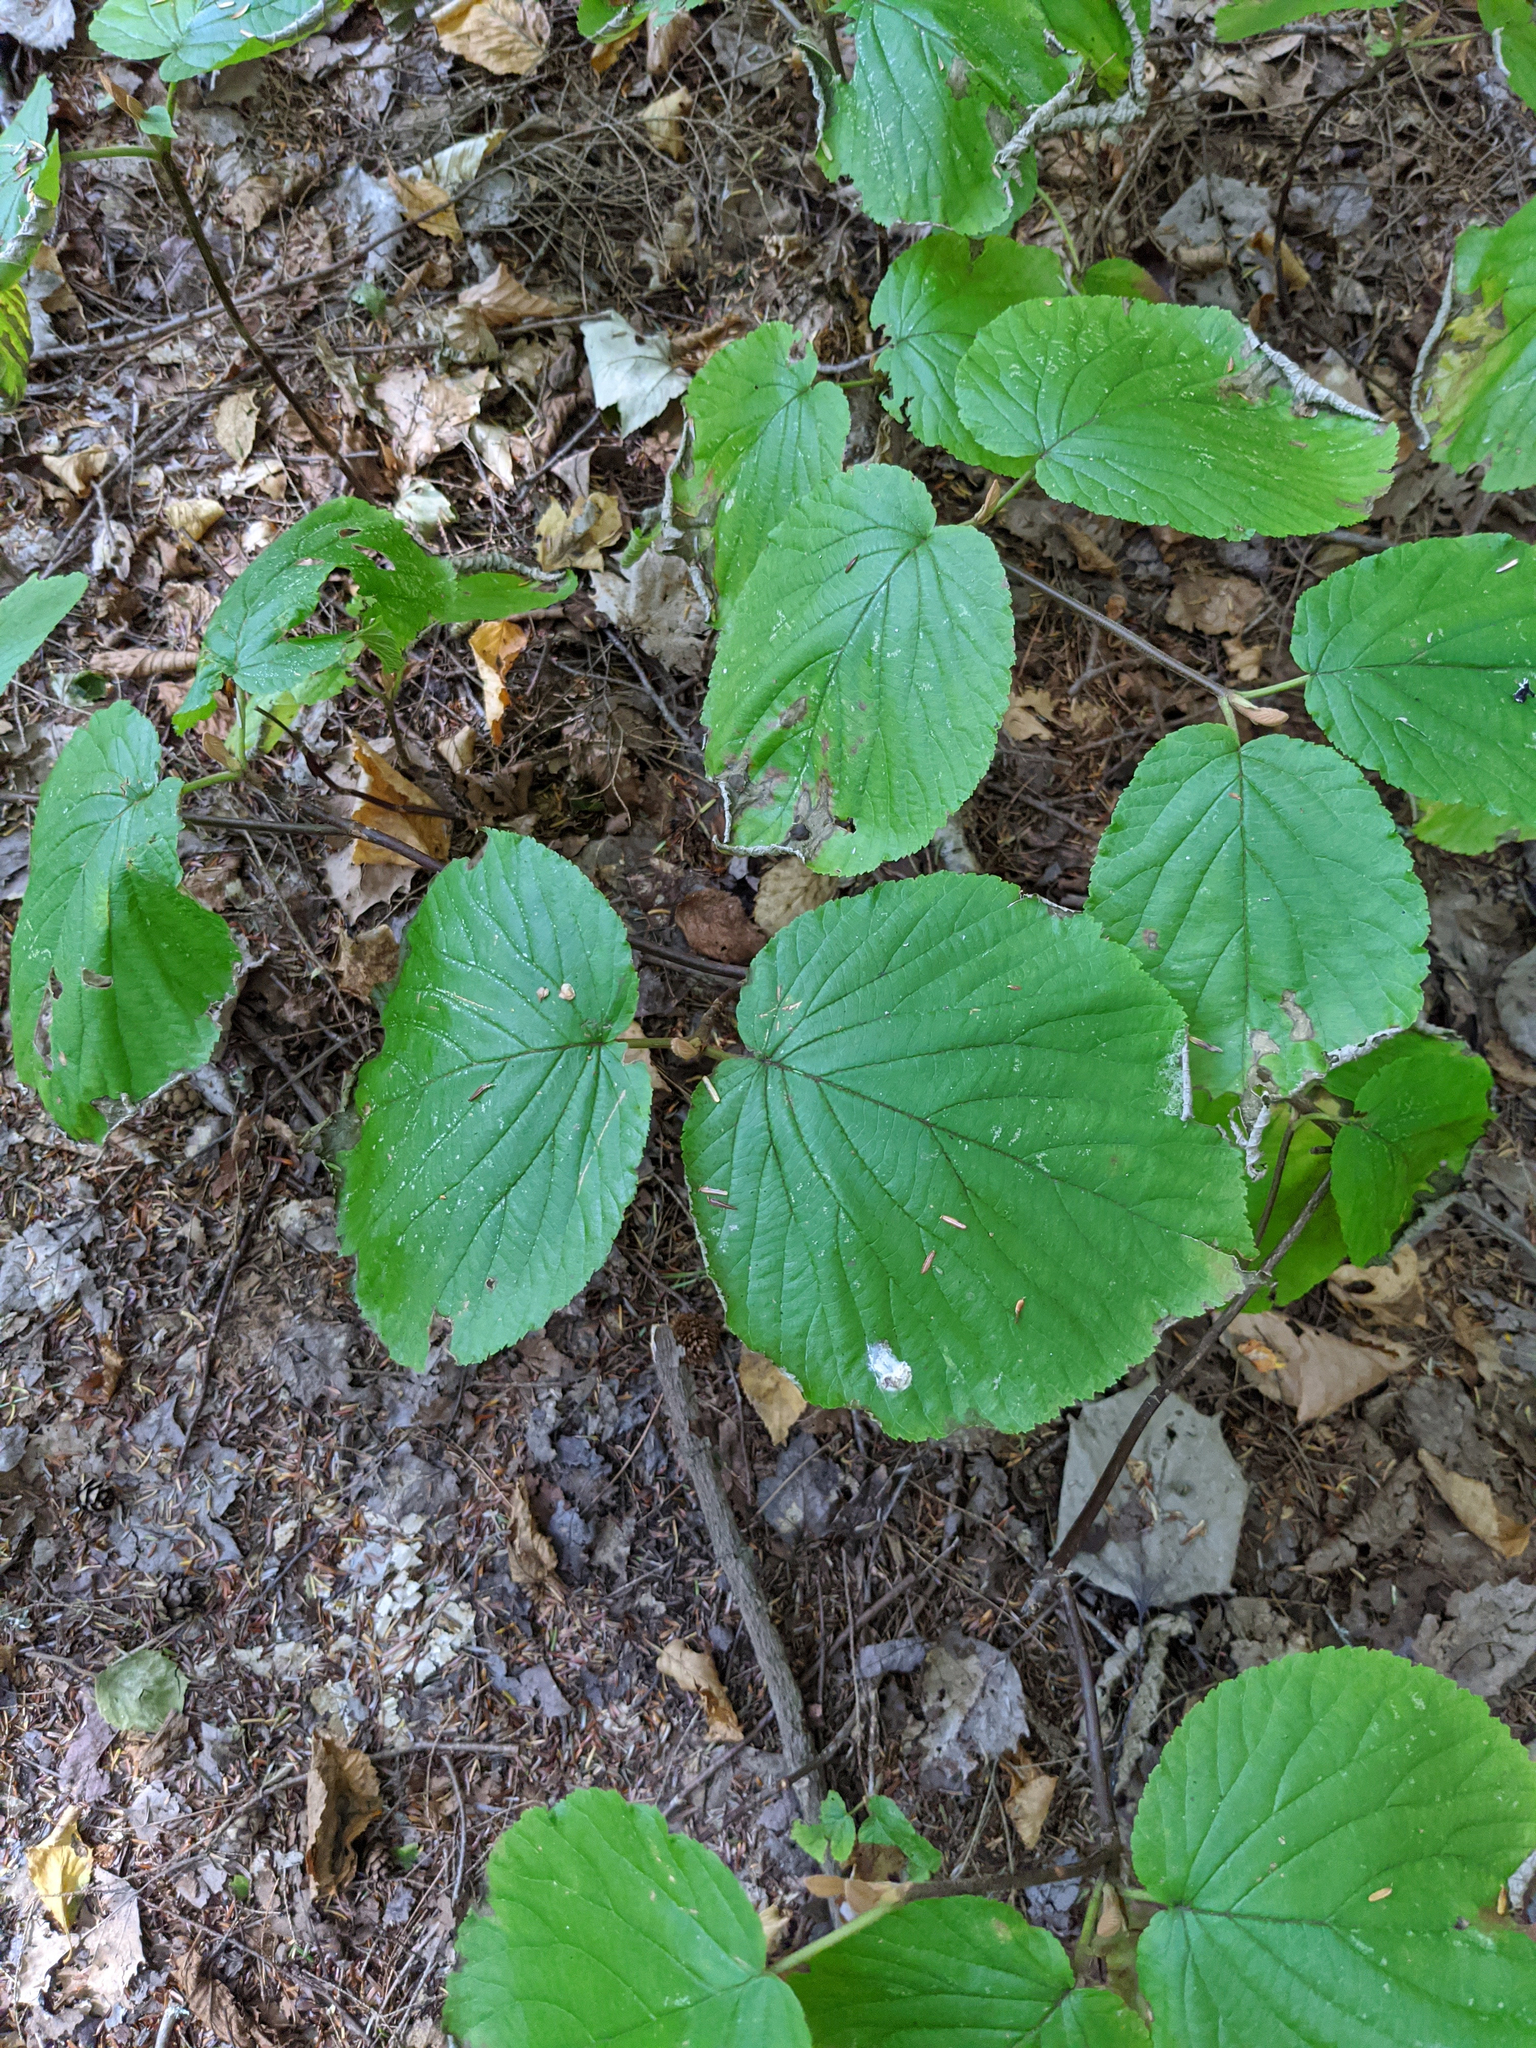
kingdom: Plantae
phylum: Tracheophyta
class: Magnoliopsida
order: Dipsacales
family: Viburnaceae
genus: Viburnum
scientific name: Viburnum lantanoides
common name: Hobblebush
